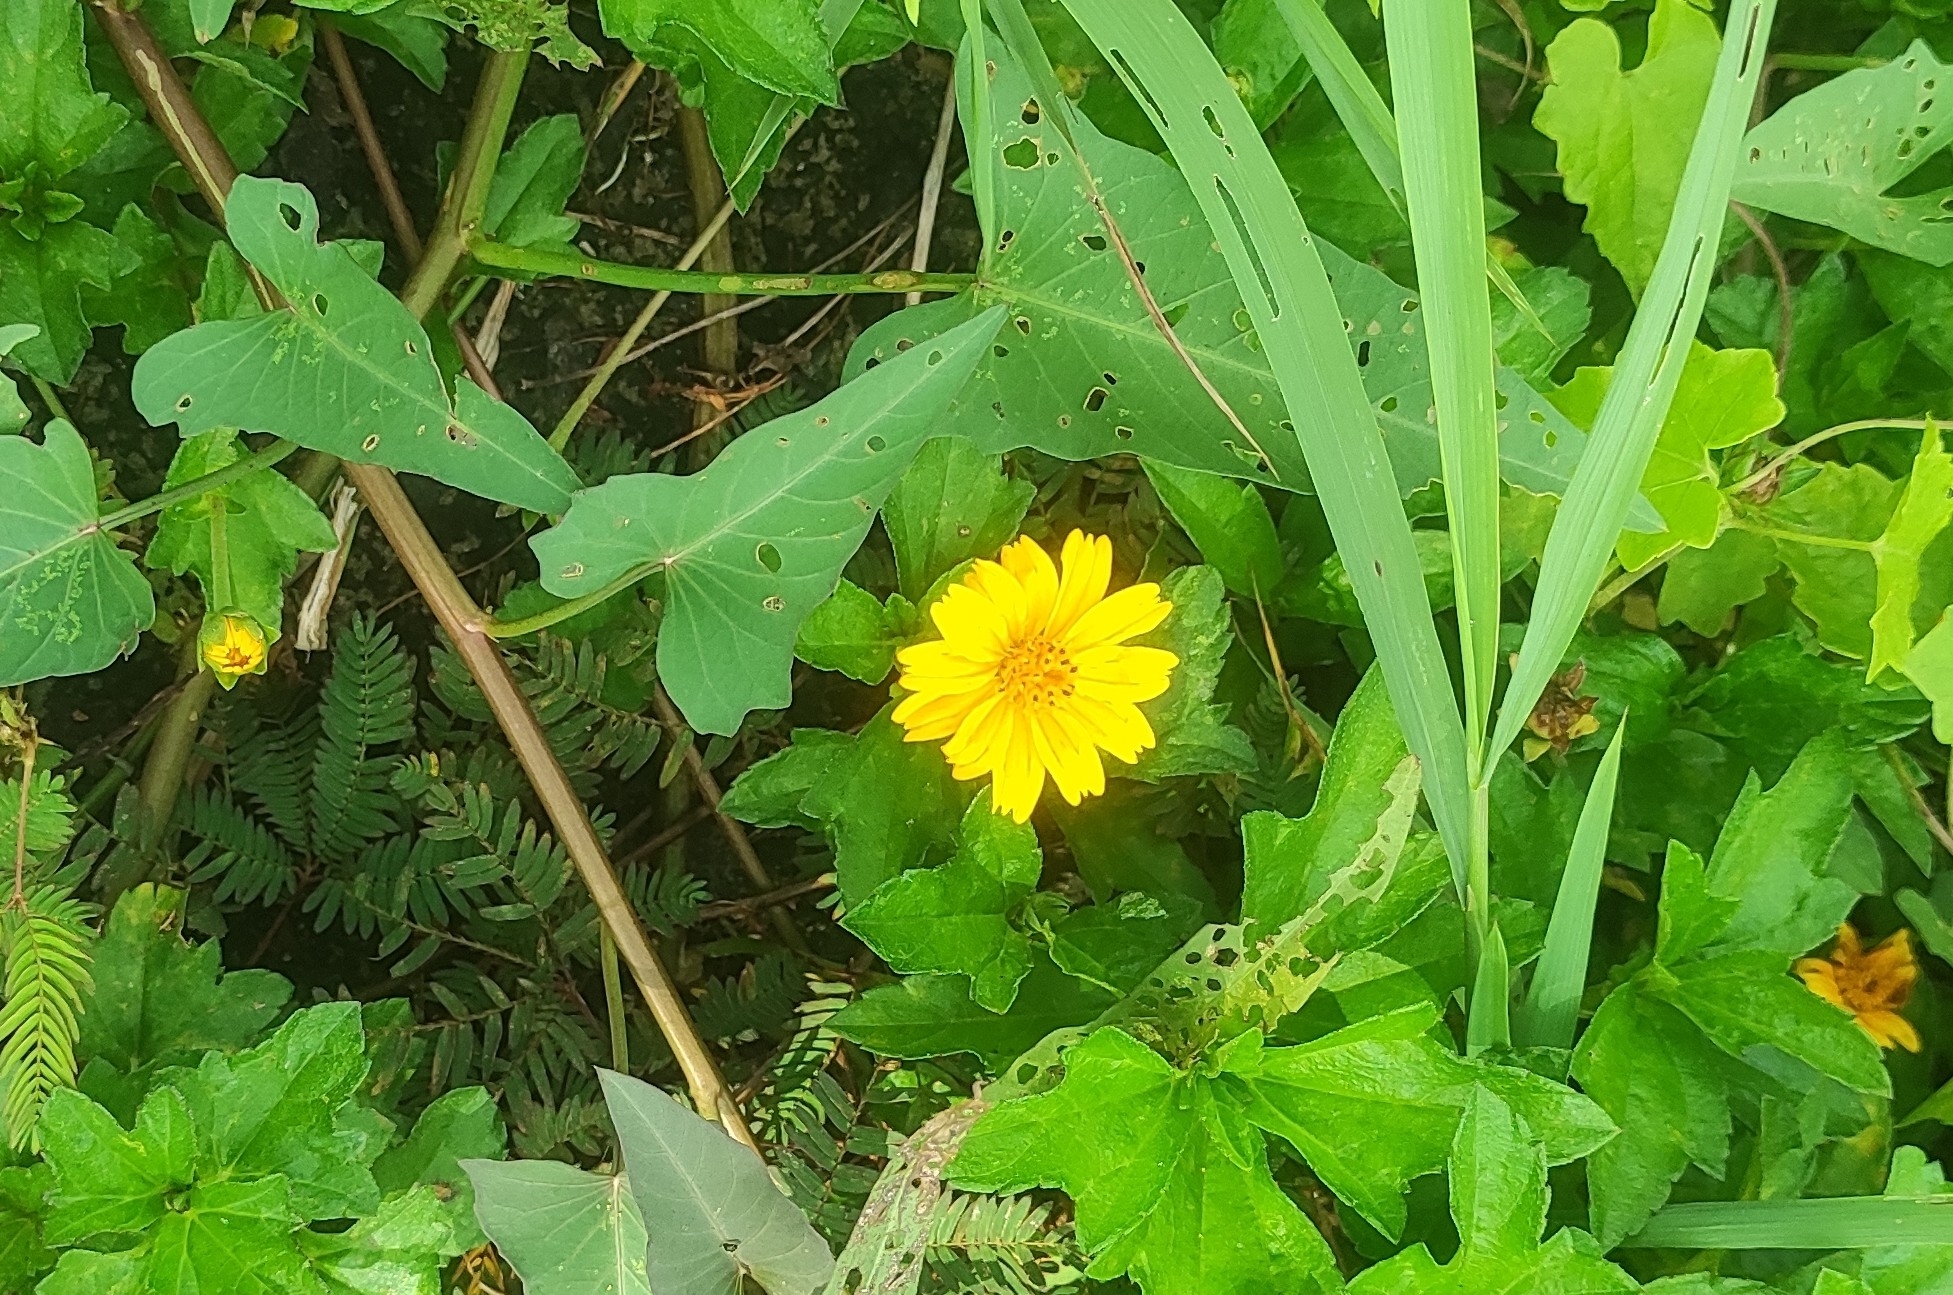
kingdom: Plantae
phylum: Tracheophyta
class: Magnoliopsida
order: Asterales
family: Asteraceae
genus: Sphagneticola
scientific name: Sphagneticola trilobata
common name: Bay biscayne creeping-oxeye
